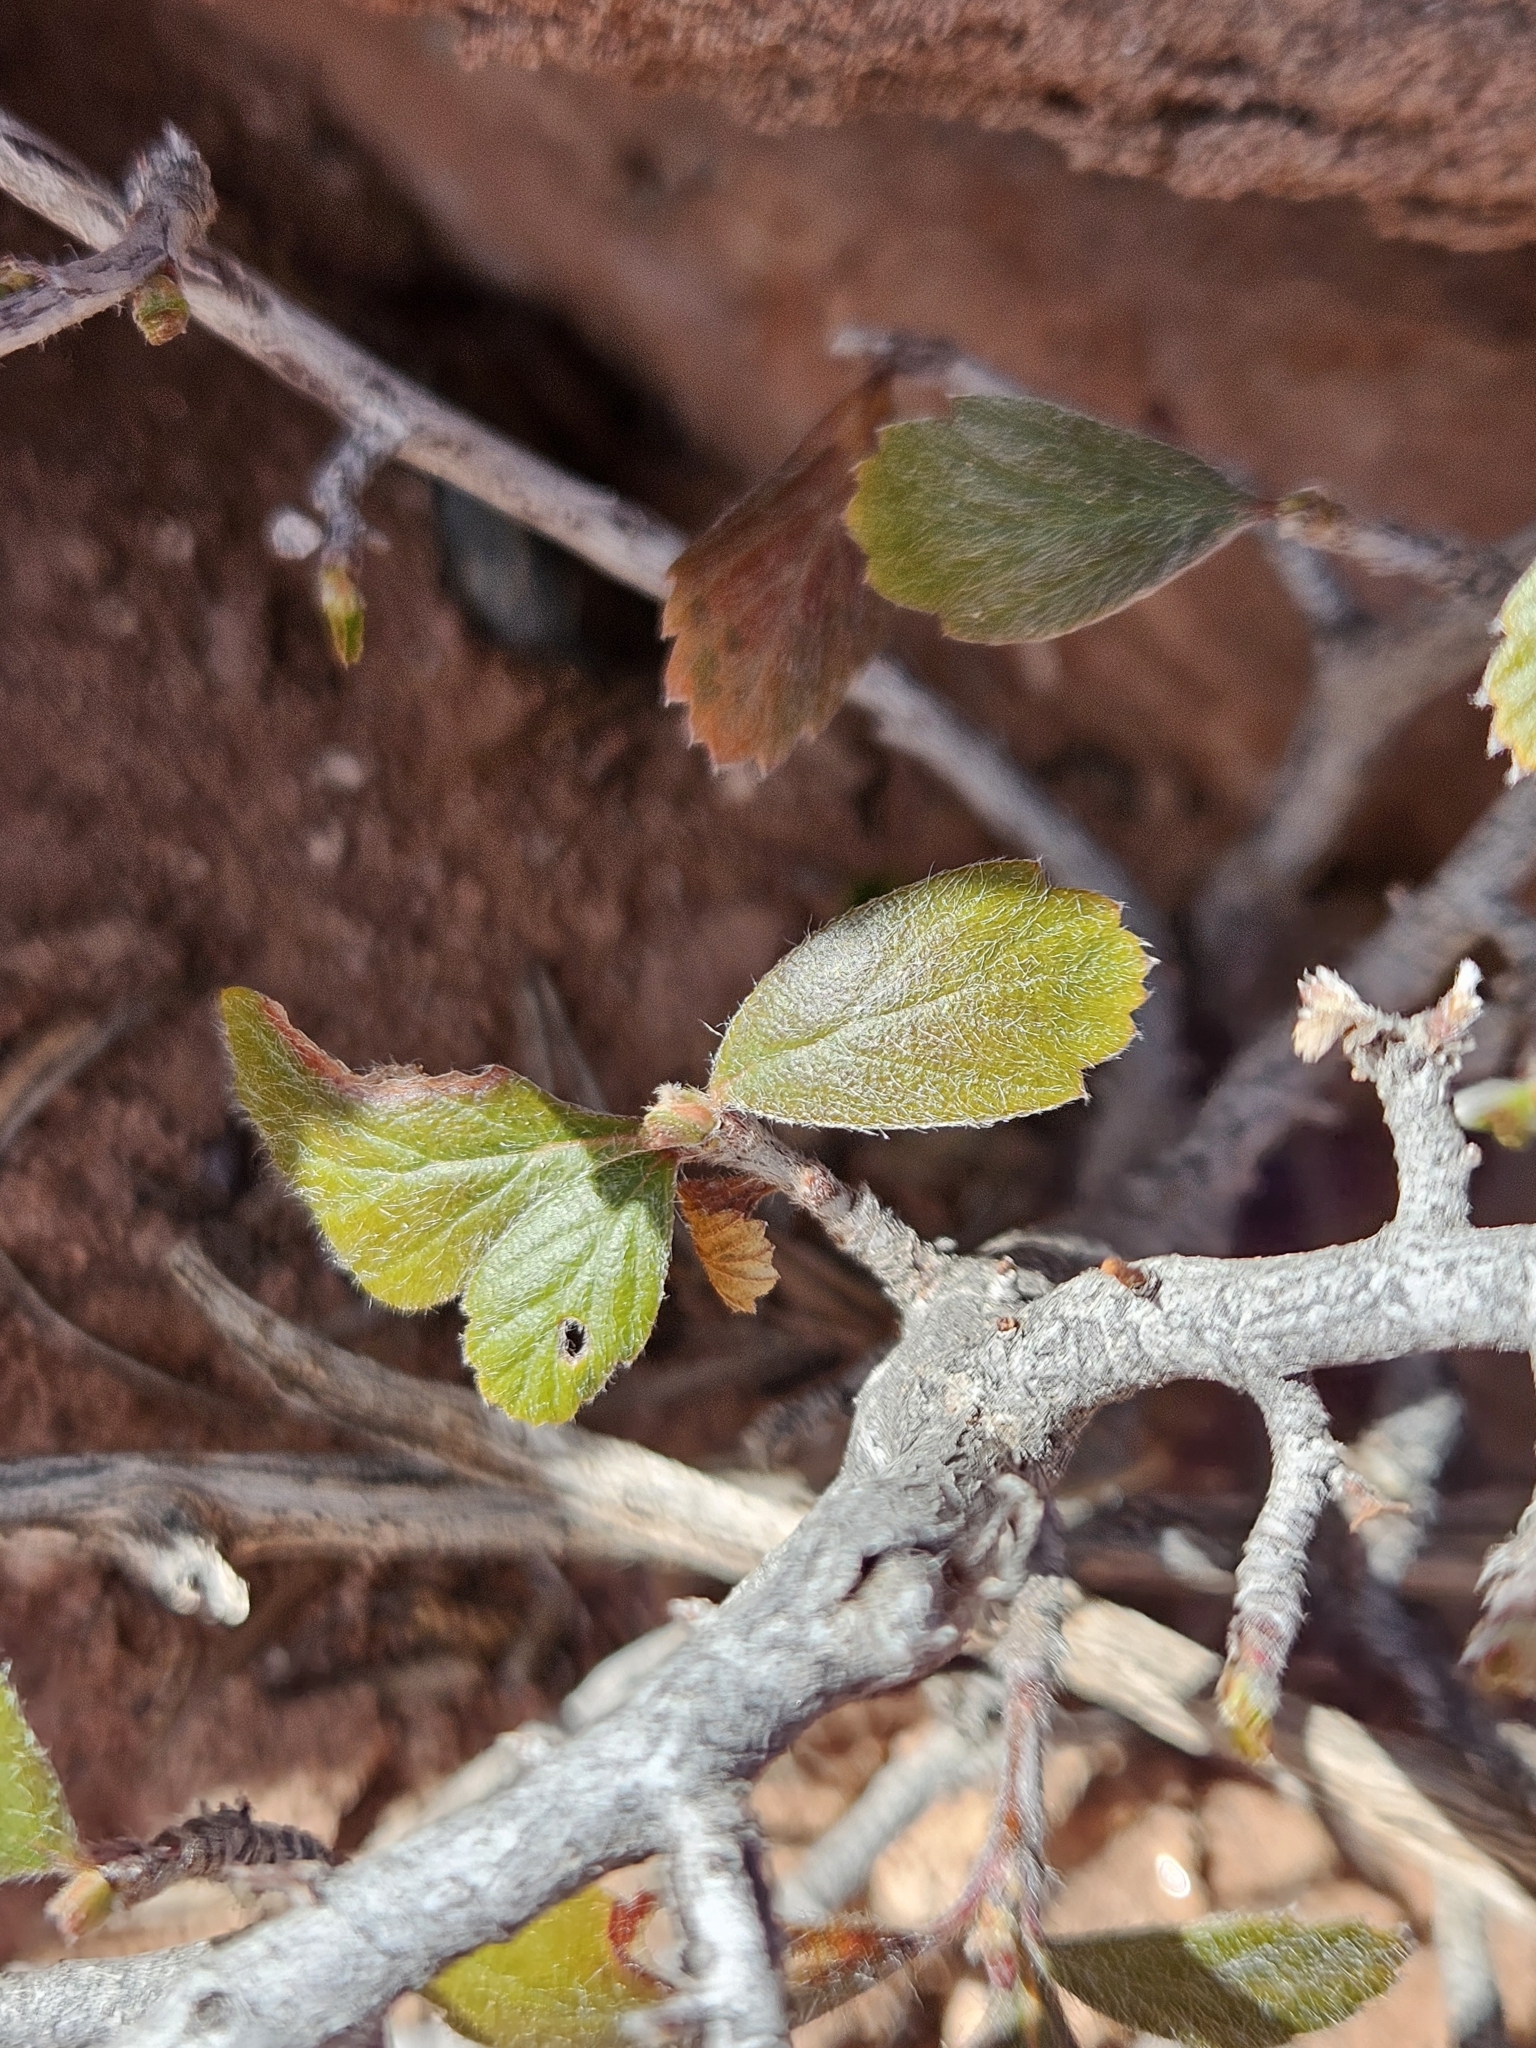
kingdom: Plantae
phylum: Tracheophyta
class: Magnoliopsida
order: Rosales
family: Rosaceae
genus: Cercocarpus
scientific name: Cercocarpus montanus
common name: Alder-leaf cercocarpus
